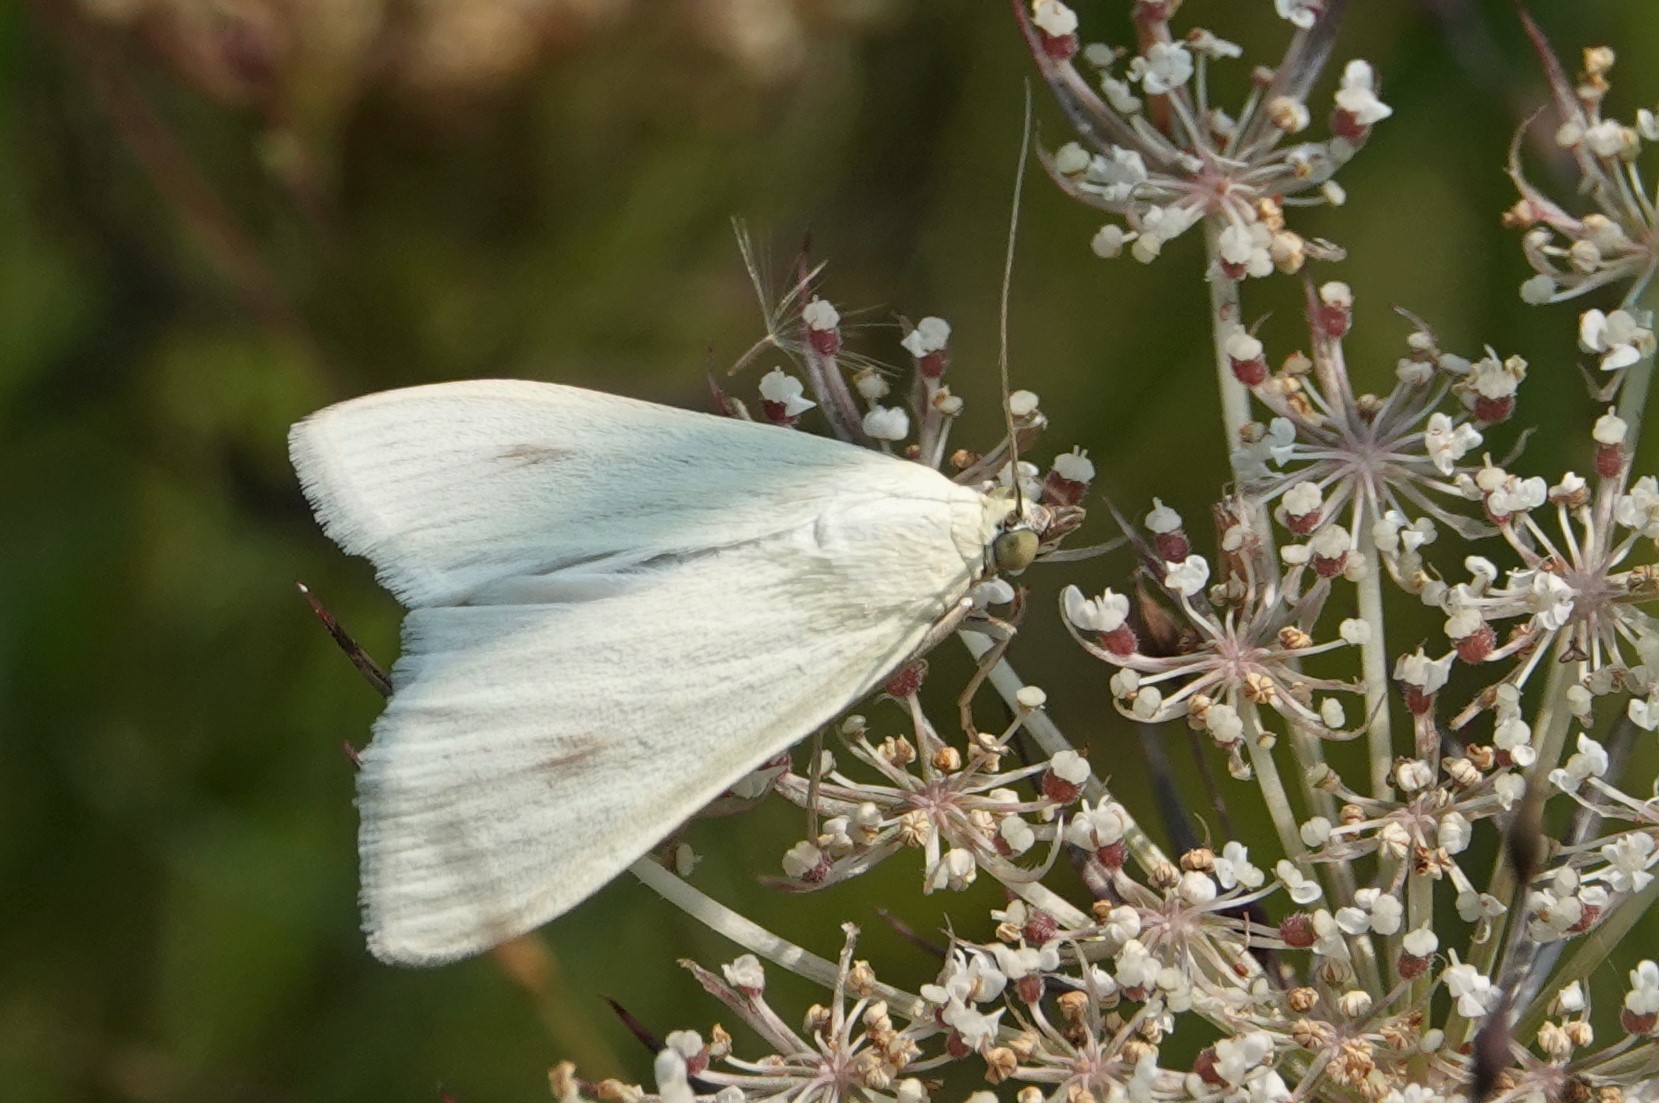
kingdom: Animalia
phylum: Arthropoda
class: Insecta
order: Lepidoptera
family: Crambidae
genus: Sitochroa
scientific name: Sitochroa palealis
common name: Greenish-yellow sitochroa moth
